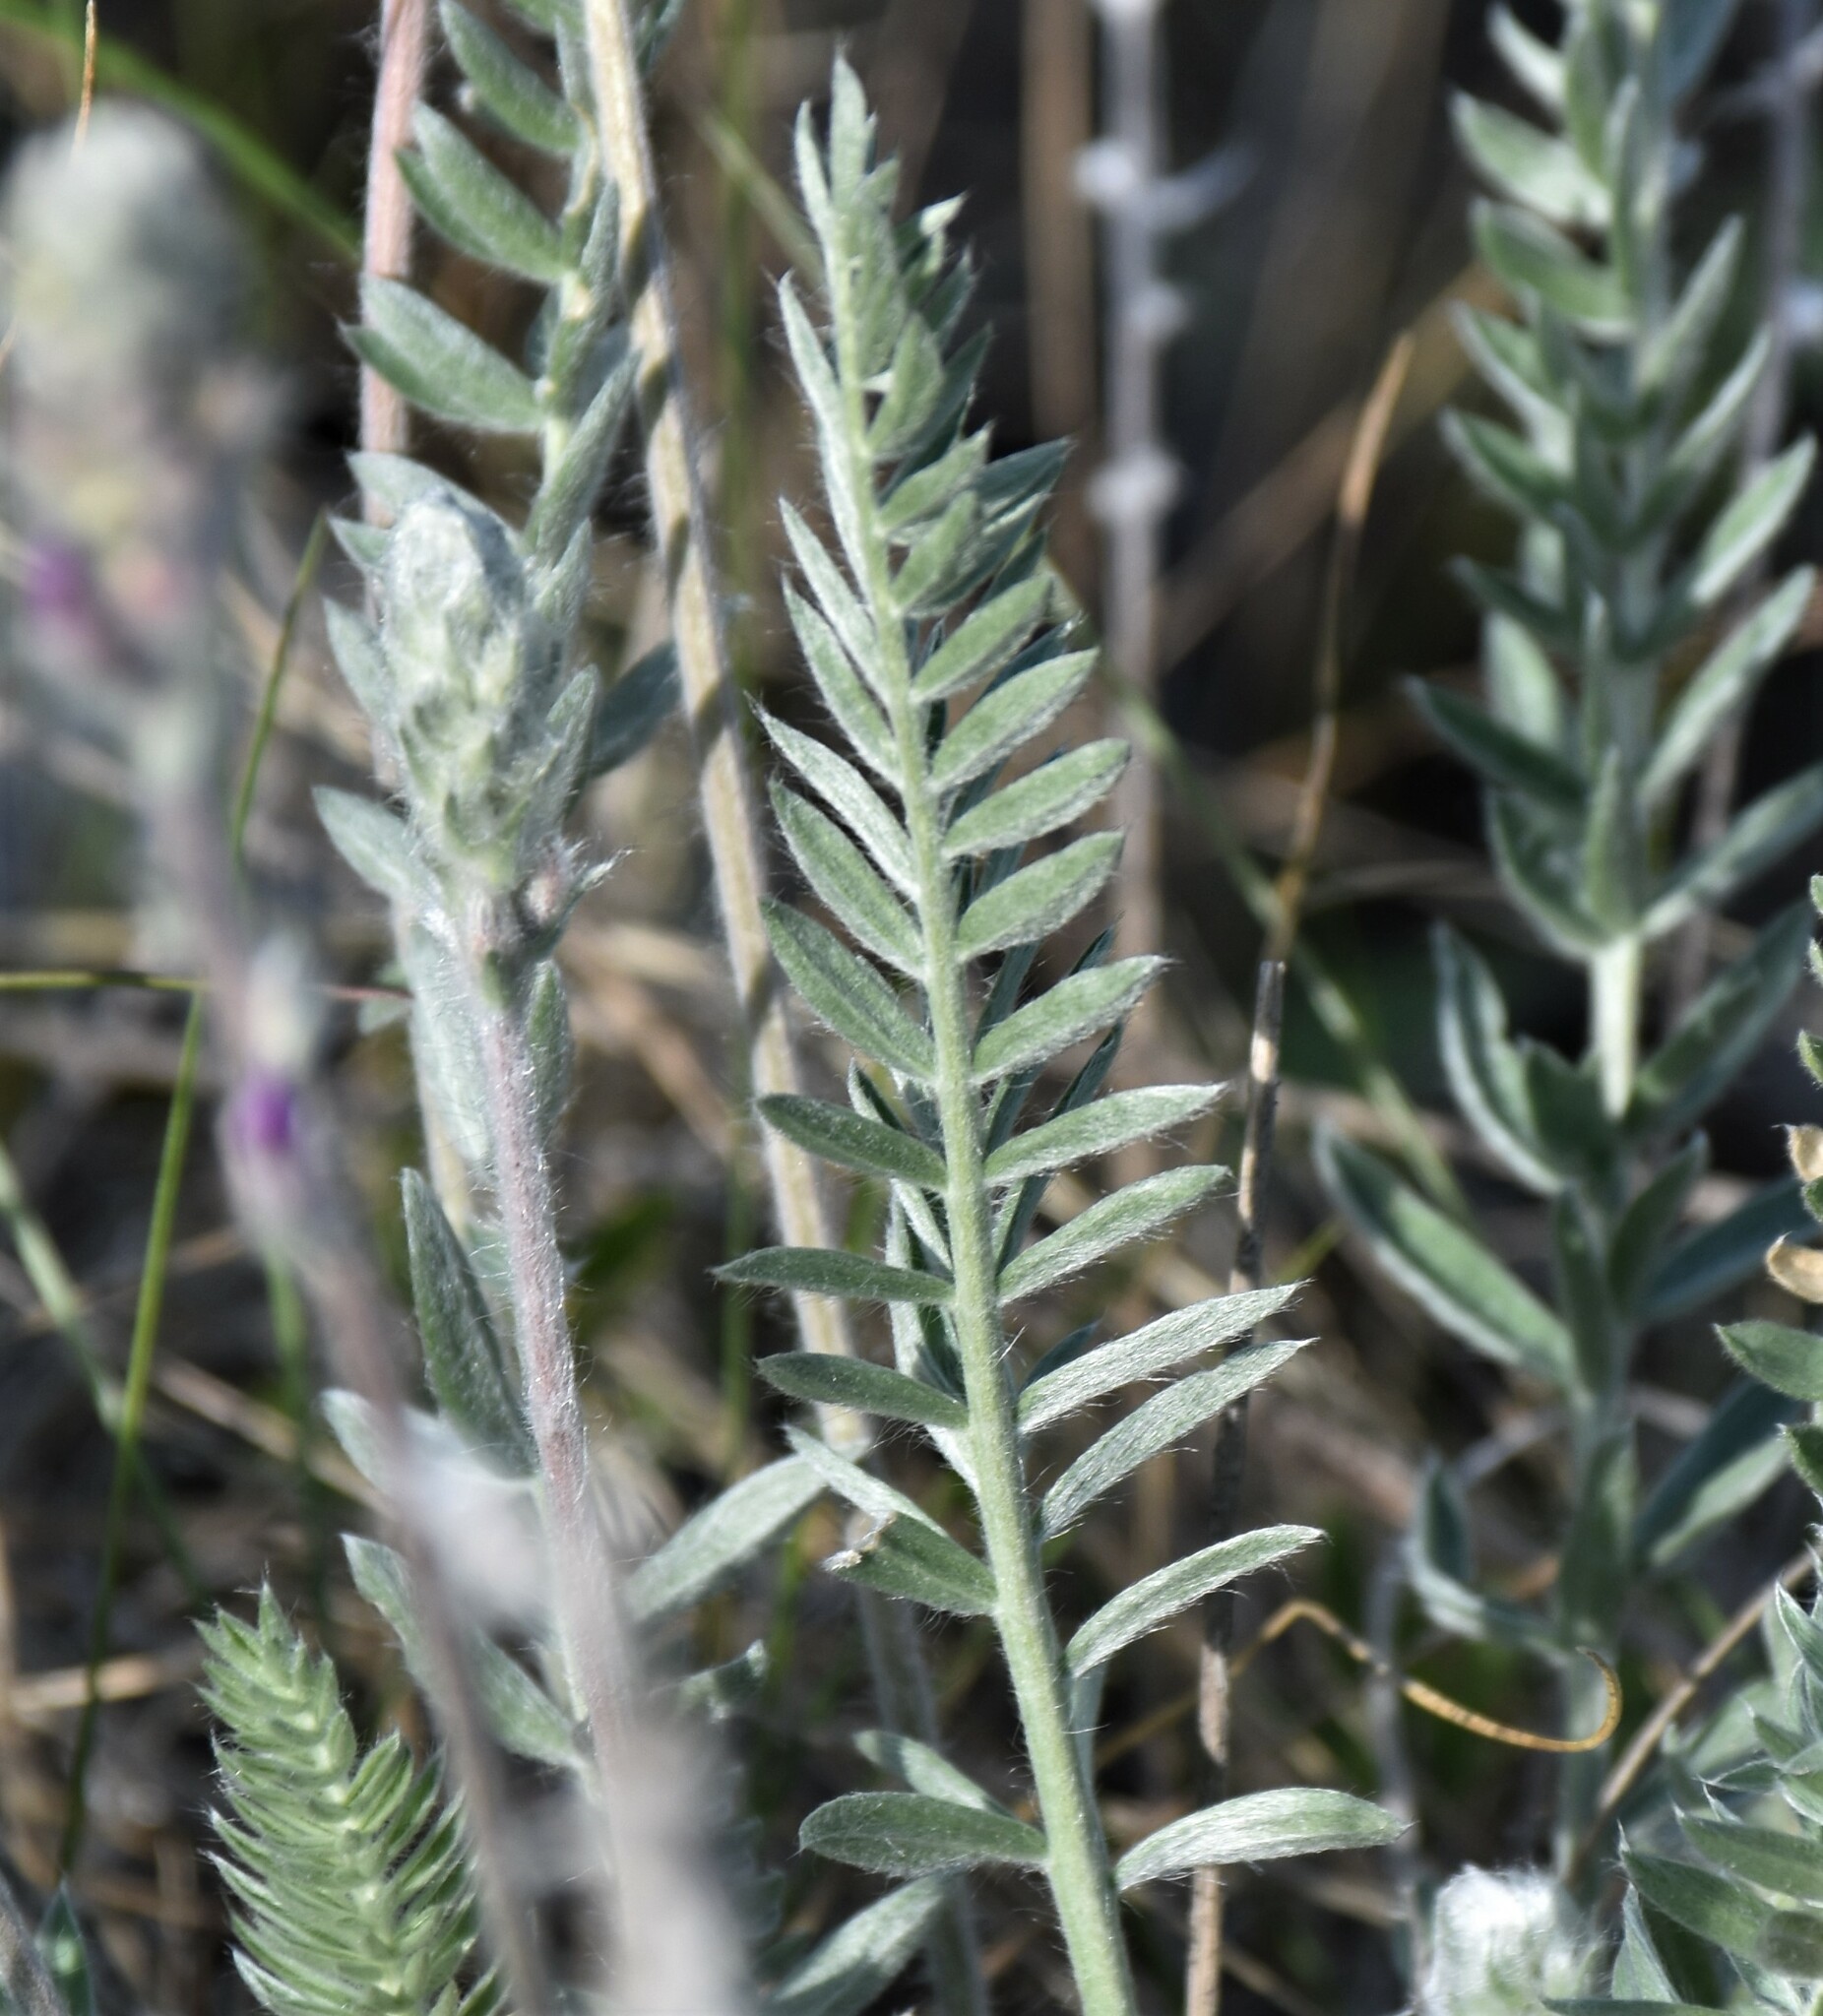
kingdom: Plantae
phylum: Tracheophyta
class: Magnoliopsida
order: Fabales
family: Fabaceae
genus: Oxytropis
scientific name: Oxytropis splendens
